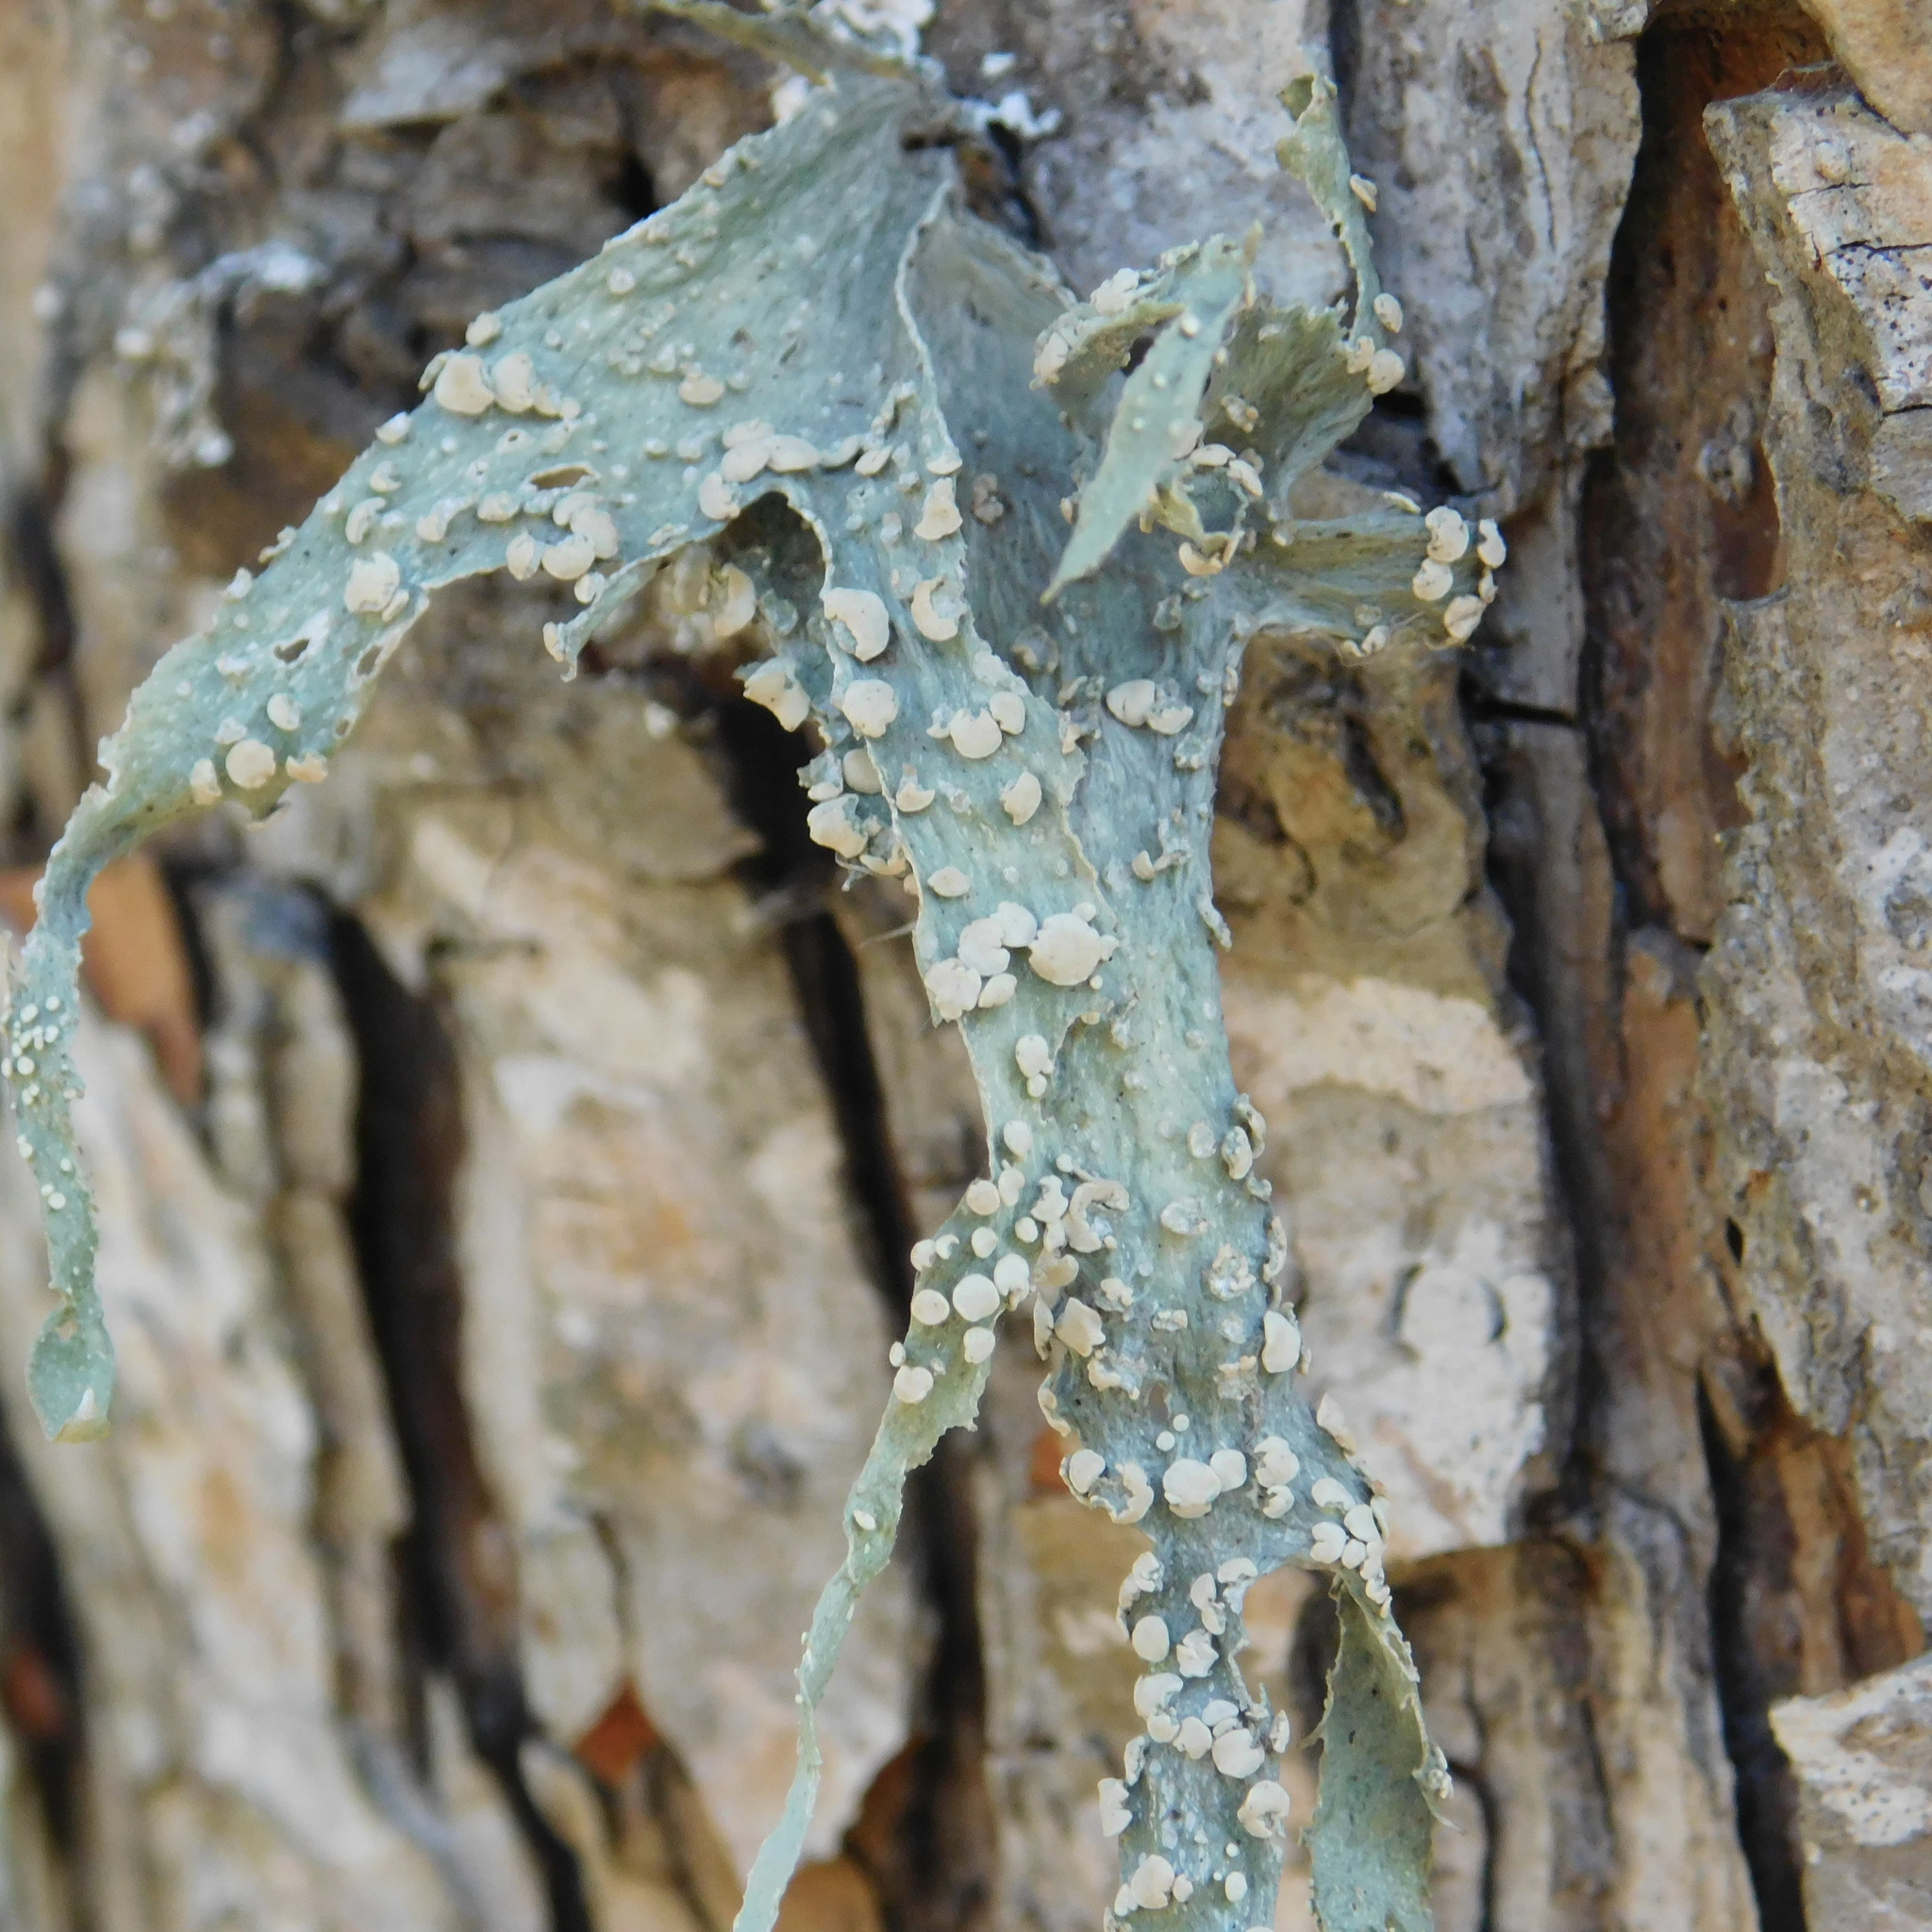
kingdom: Fungi
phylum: Ascomycota
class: Lecanoromycetes
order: Lecanorales
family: Ramalinaceae
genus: Ramalina
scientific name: Ramalina celastri
